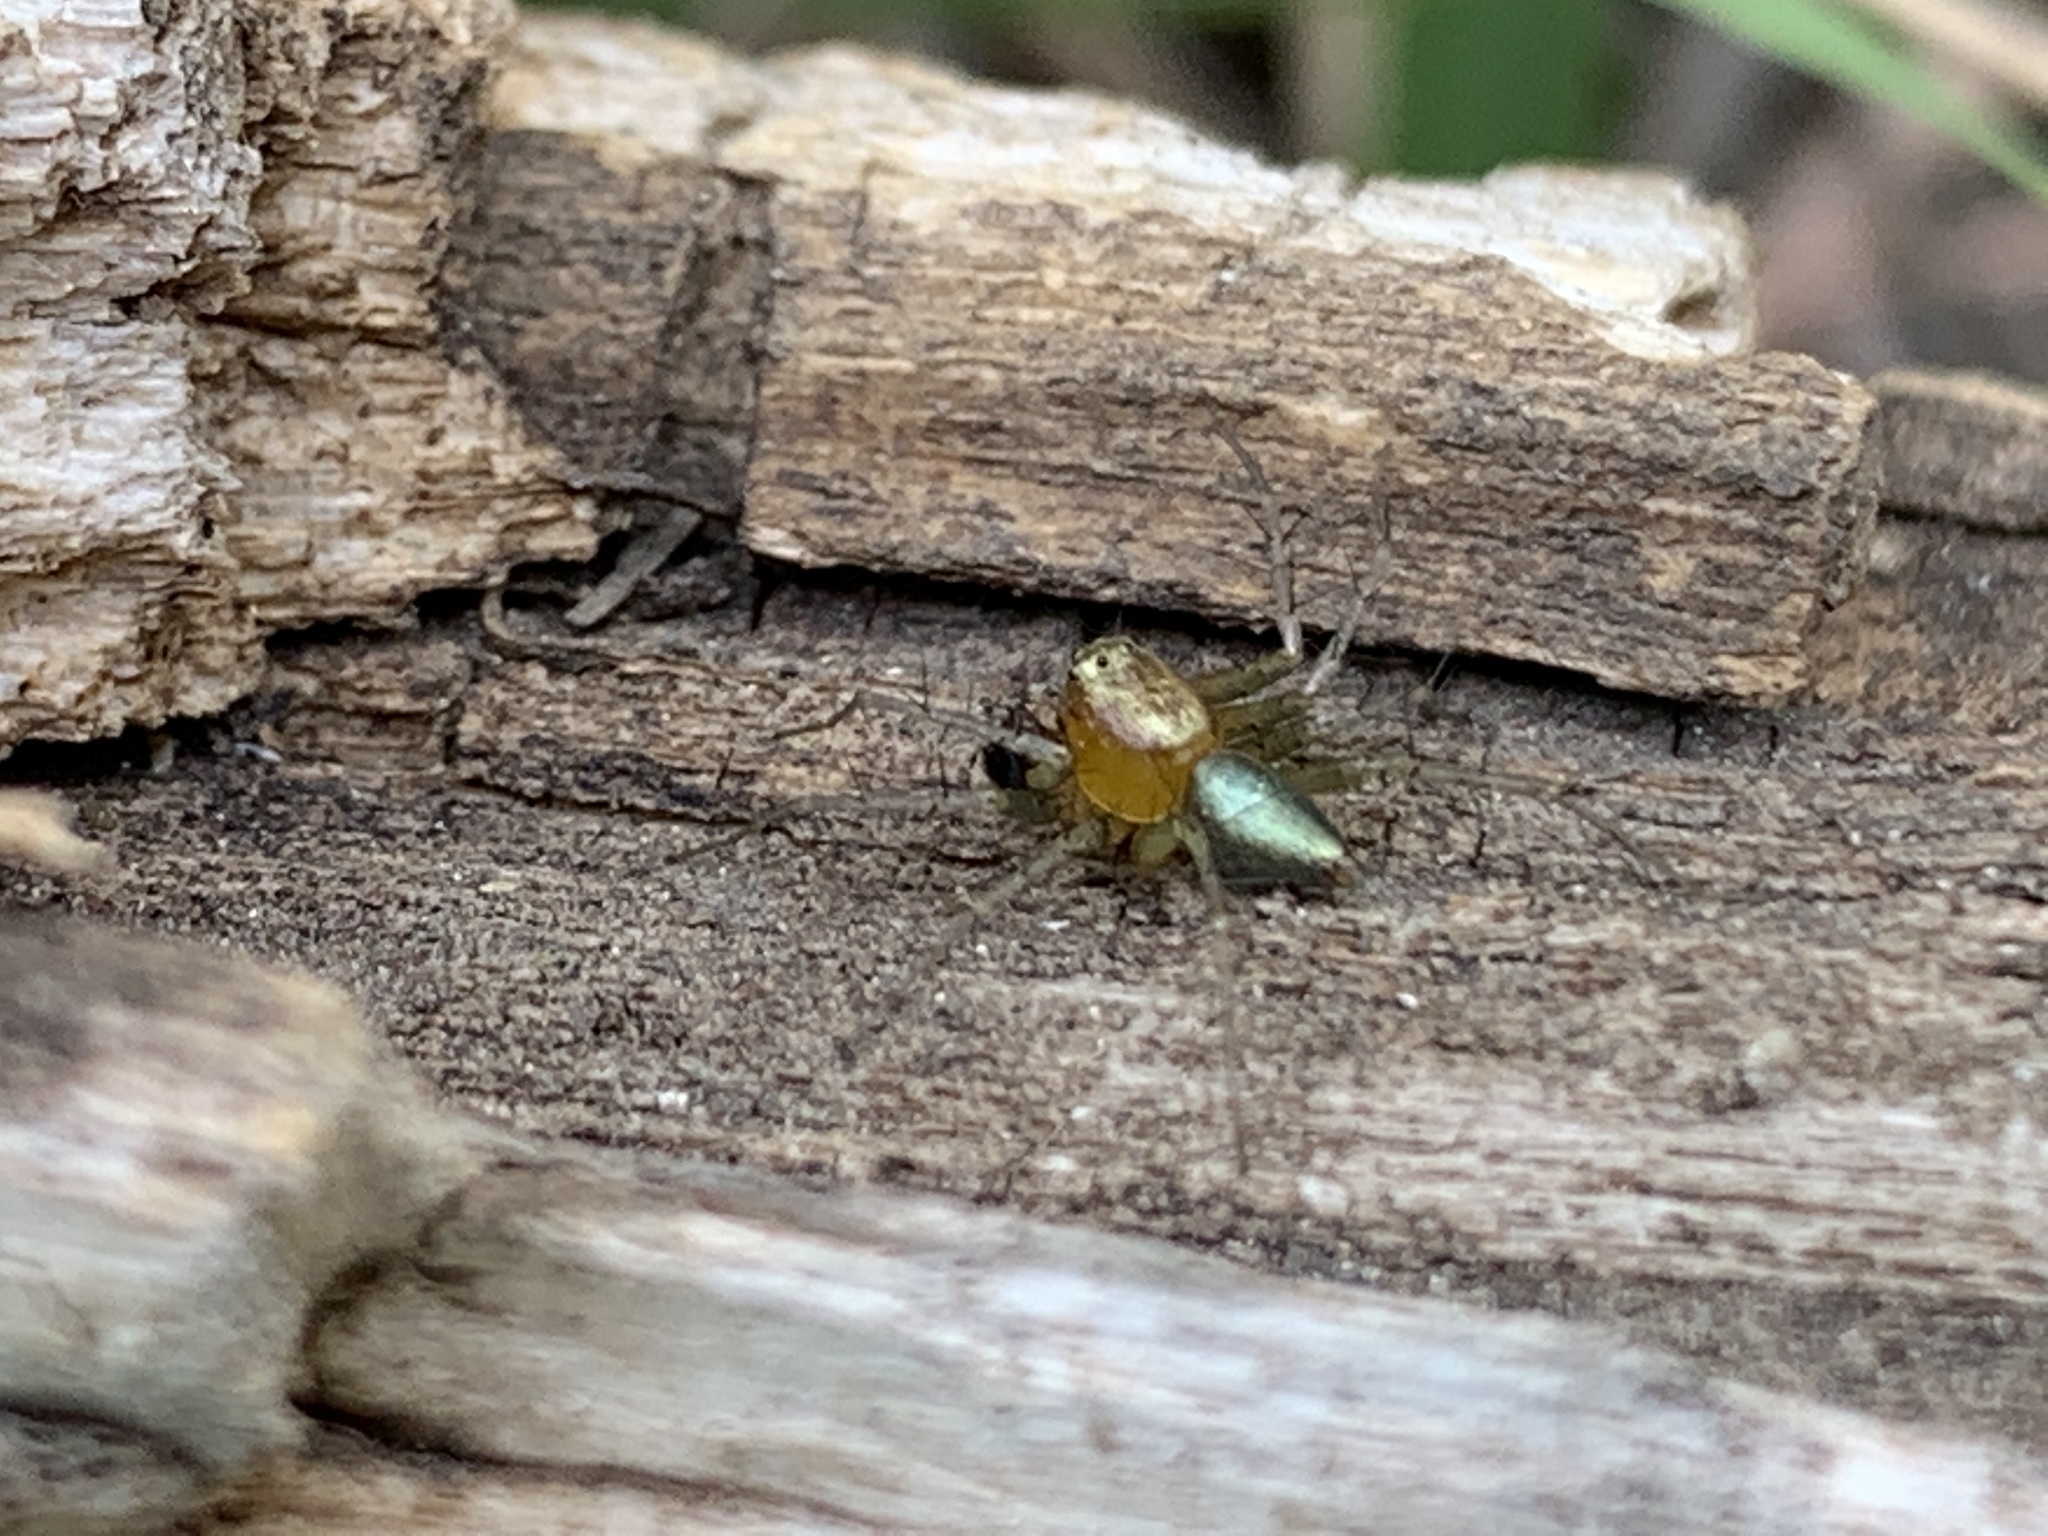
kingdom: Animalia
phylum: Arthropoda
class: Arachnida
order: Araneae
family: Oxyopidae
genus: Oxyopes
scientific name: Oxyopes salticus
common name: Lynx spiders
